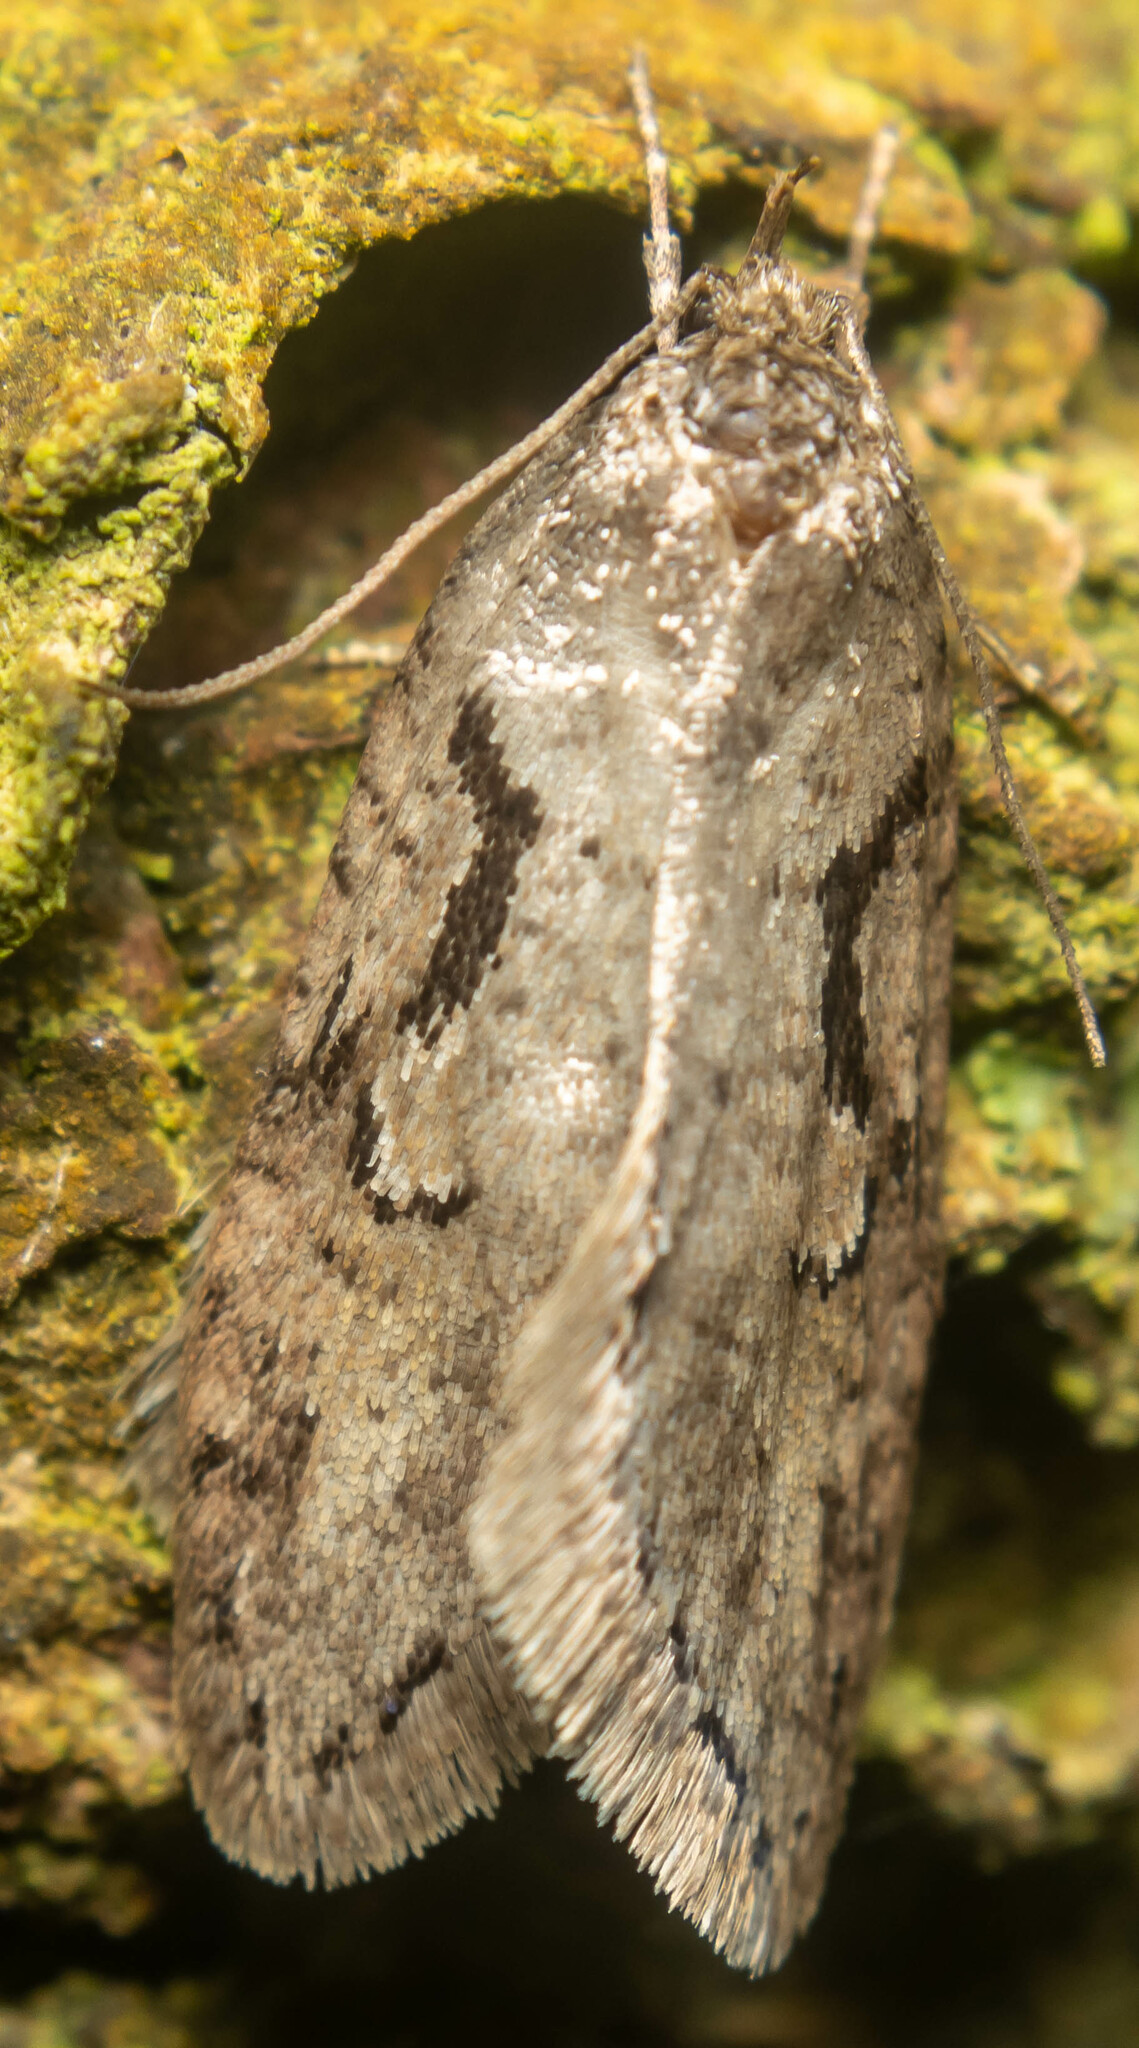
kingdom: Animalia
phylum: Arthropoda
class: Insecta
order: Lepidoptera
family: Depressariidae
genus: Semioscopis
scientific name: Semioscopis steinkellneriana
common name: Dawn flat-body
